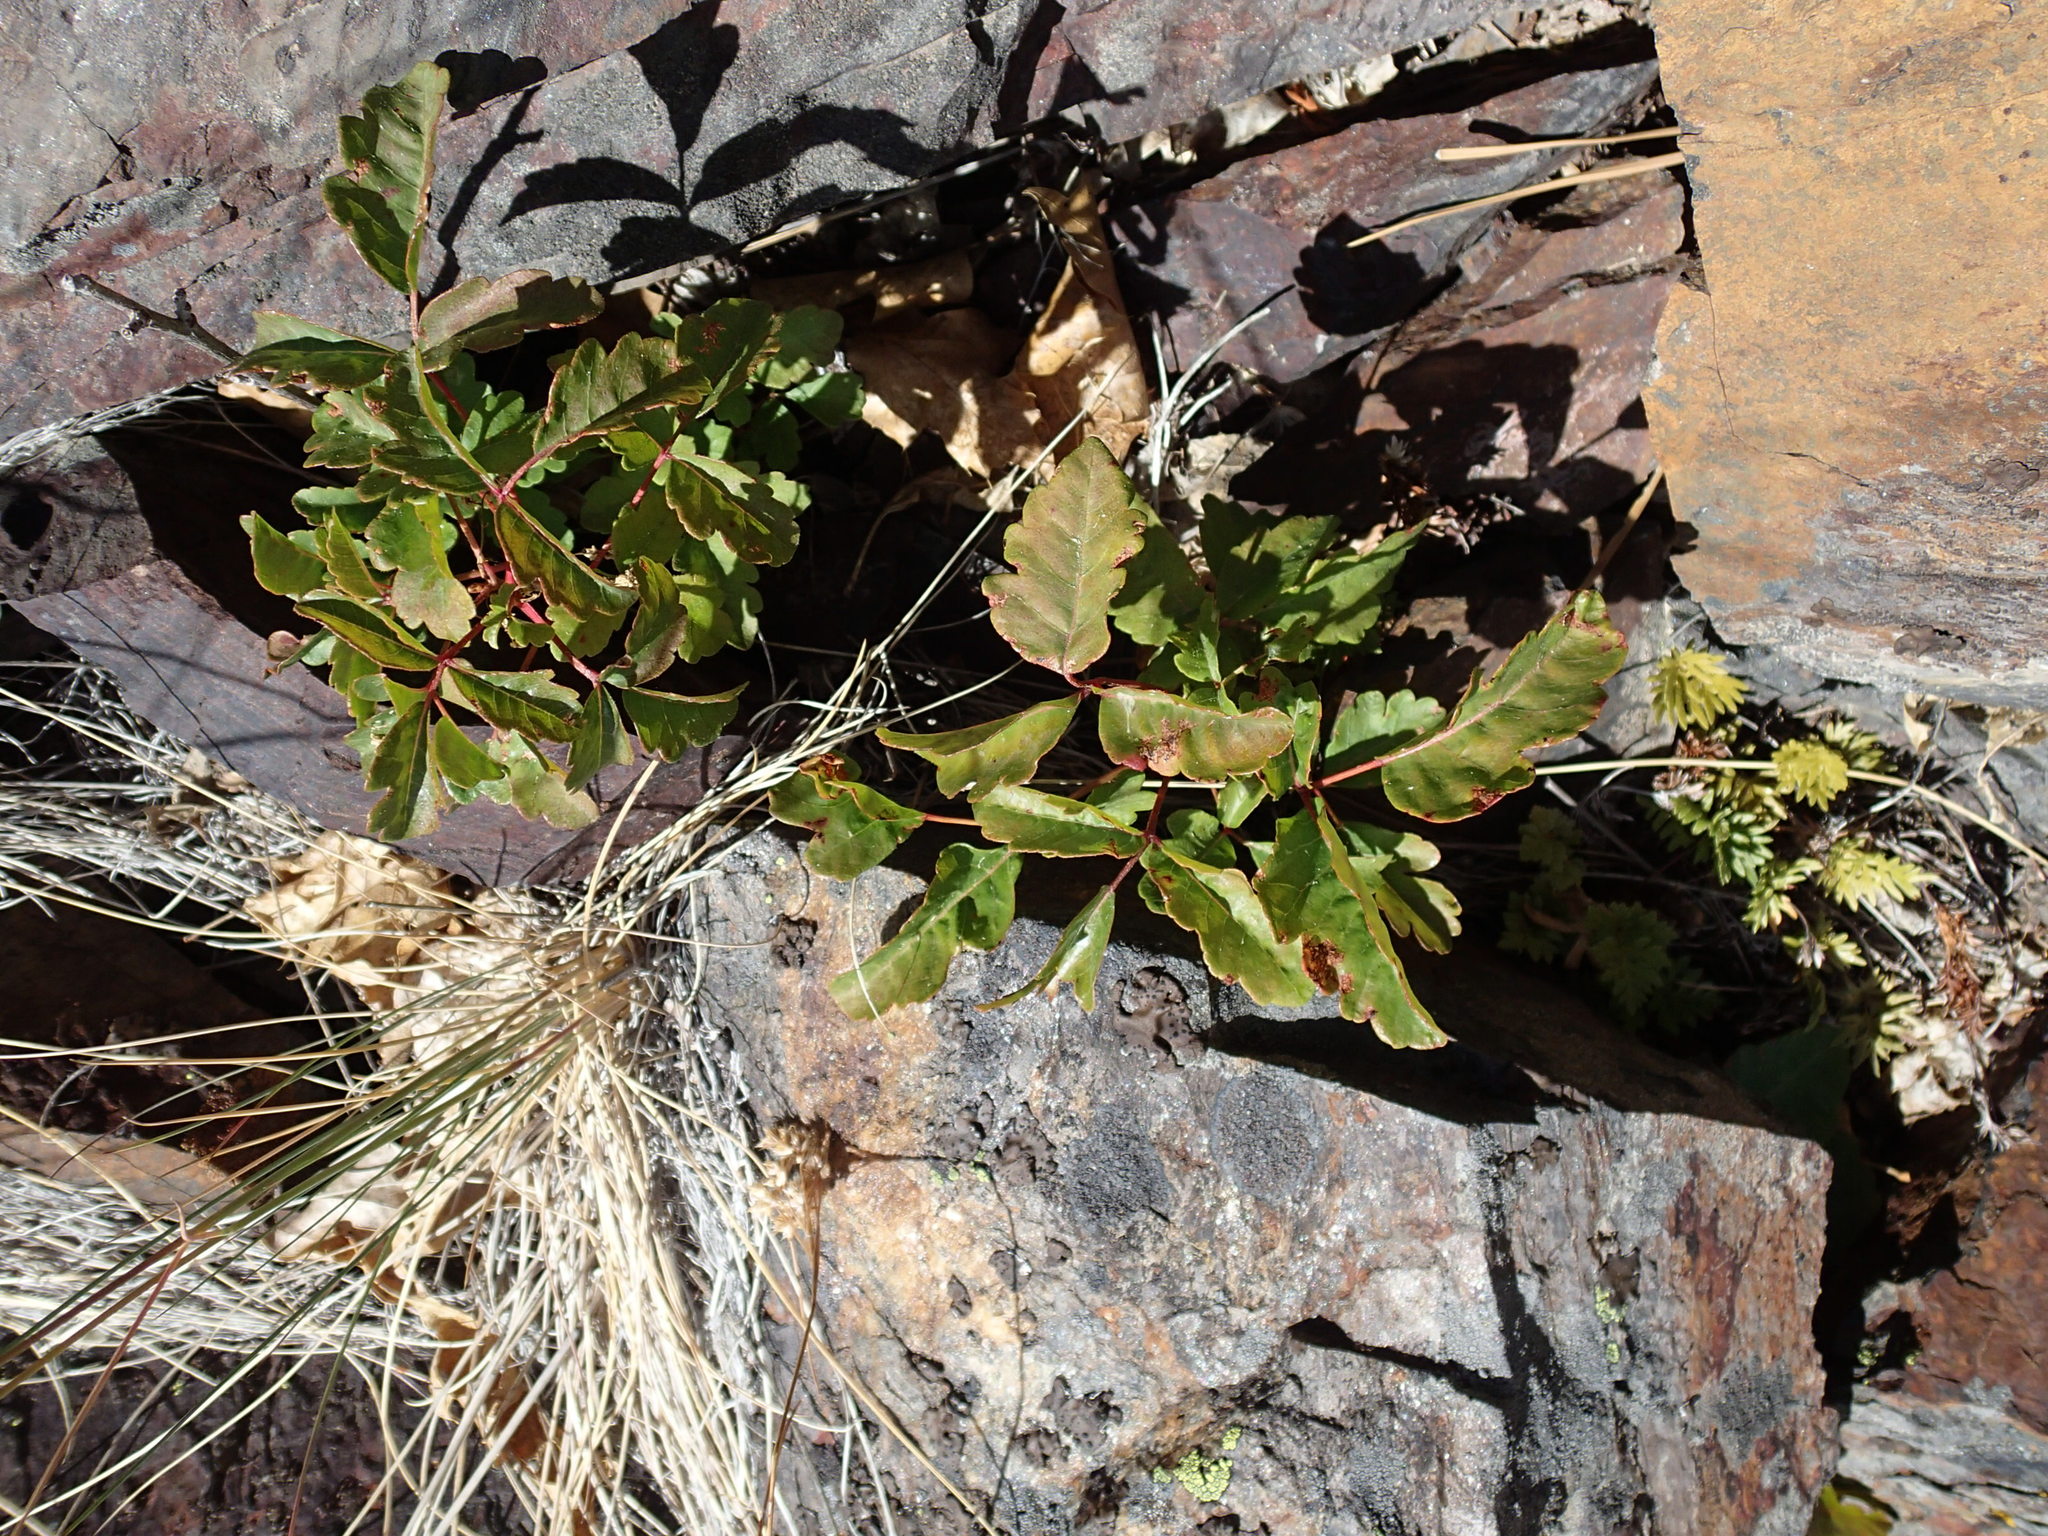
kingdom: Plantae
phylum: Tracheophyta
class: Magnoliopsida
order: Sapindales
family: Anacardiaceae
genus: Toxicodendron
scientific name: Toxicodendron diversilobum
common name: Pacific poison-oak
